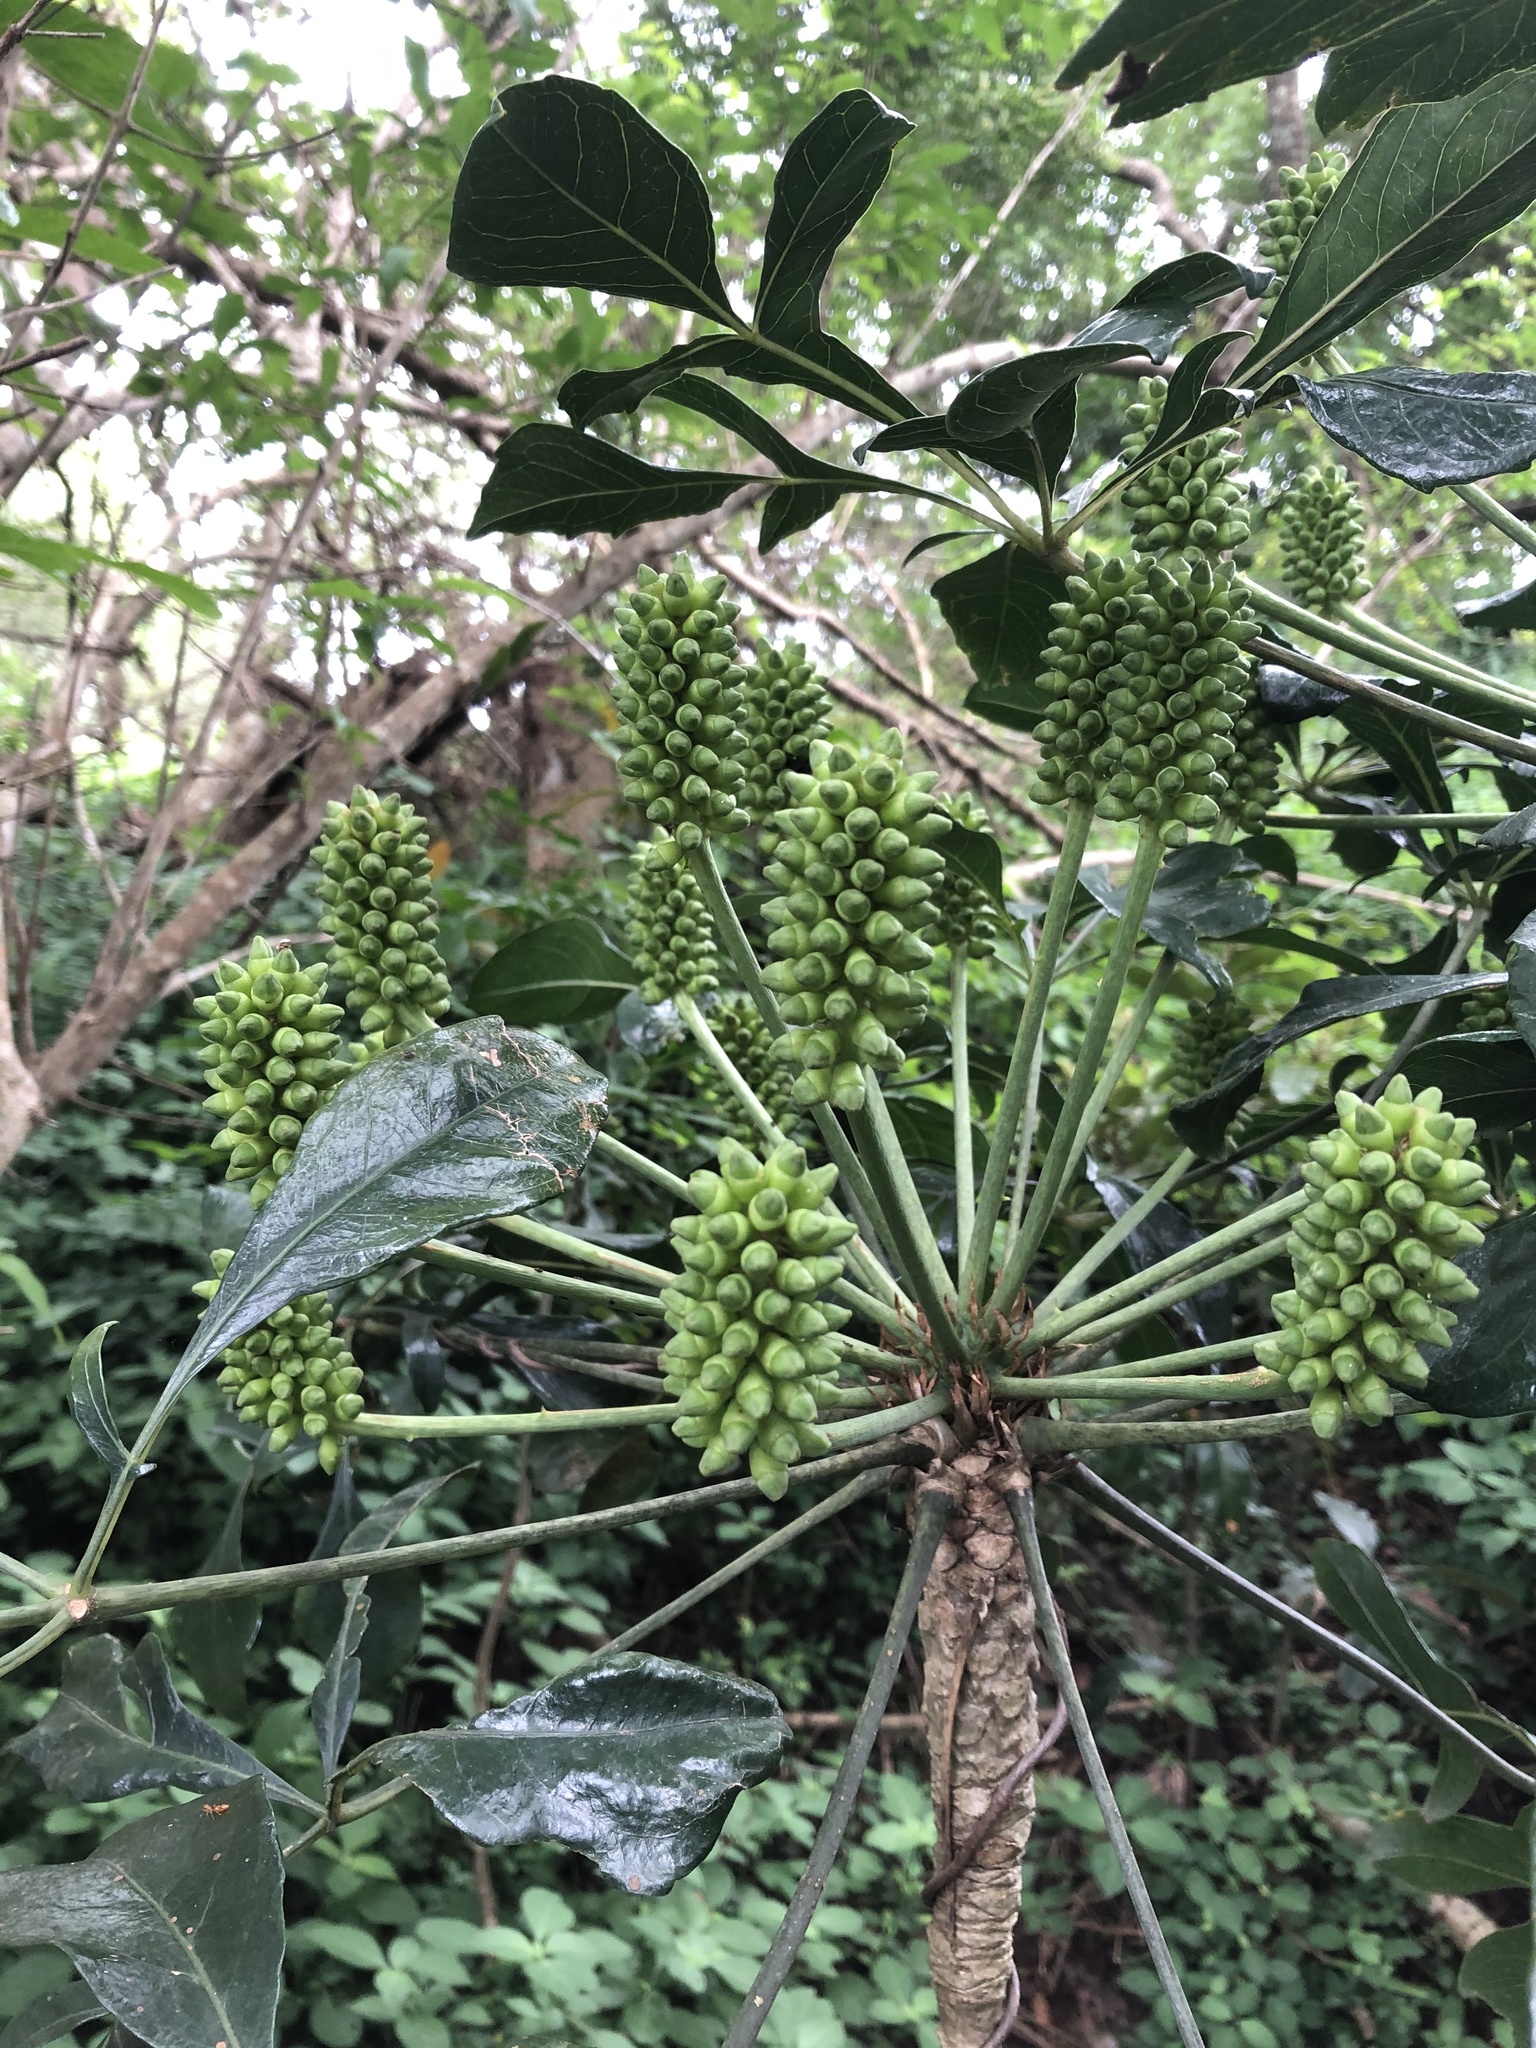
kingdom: Plantae
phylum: Tracheophyta
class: Magnoliopsida
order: Apiales
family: Araliaceae
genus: Cussonia
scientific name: Cussonia nicholsonii
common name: South coast cabbage-tree
